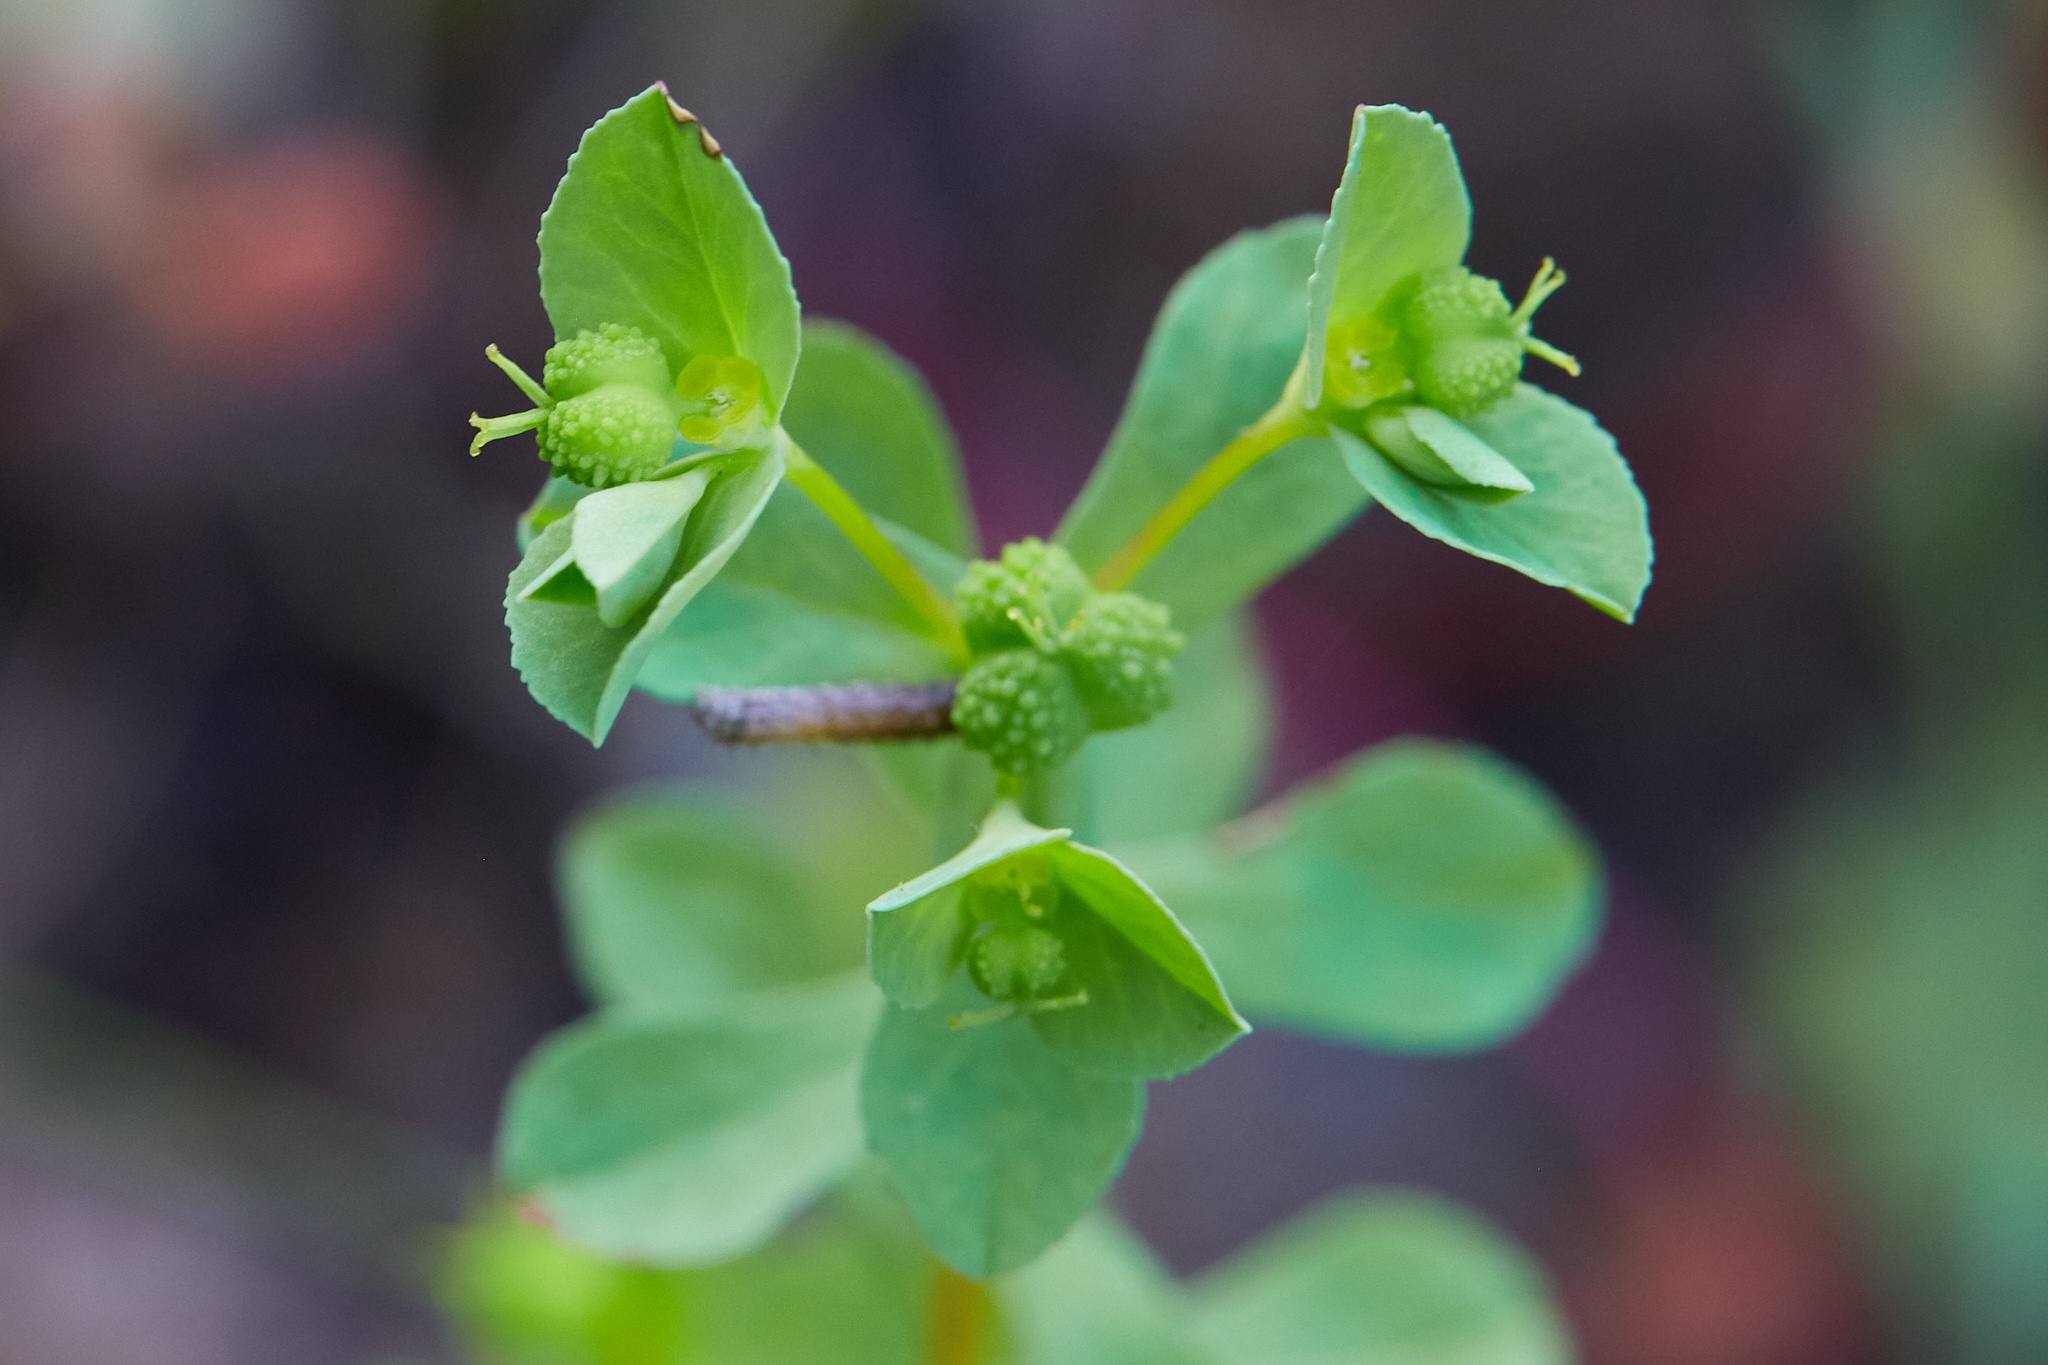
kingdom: Plantae
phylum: Tracheophyta
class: Magnoliopsida
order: Malpighiales
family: Euphorbiaceae
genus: Euphorbia
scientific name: Euphorbia spathulata
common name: Blunt spurge
